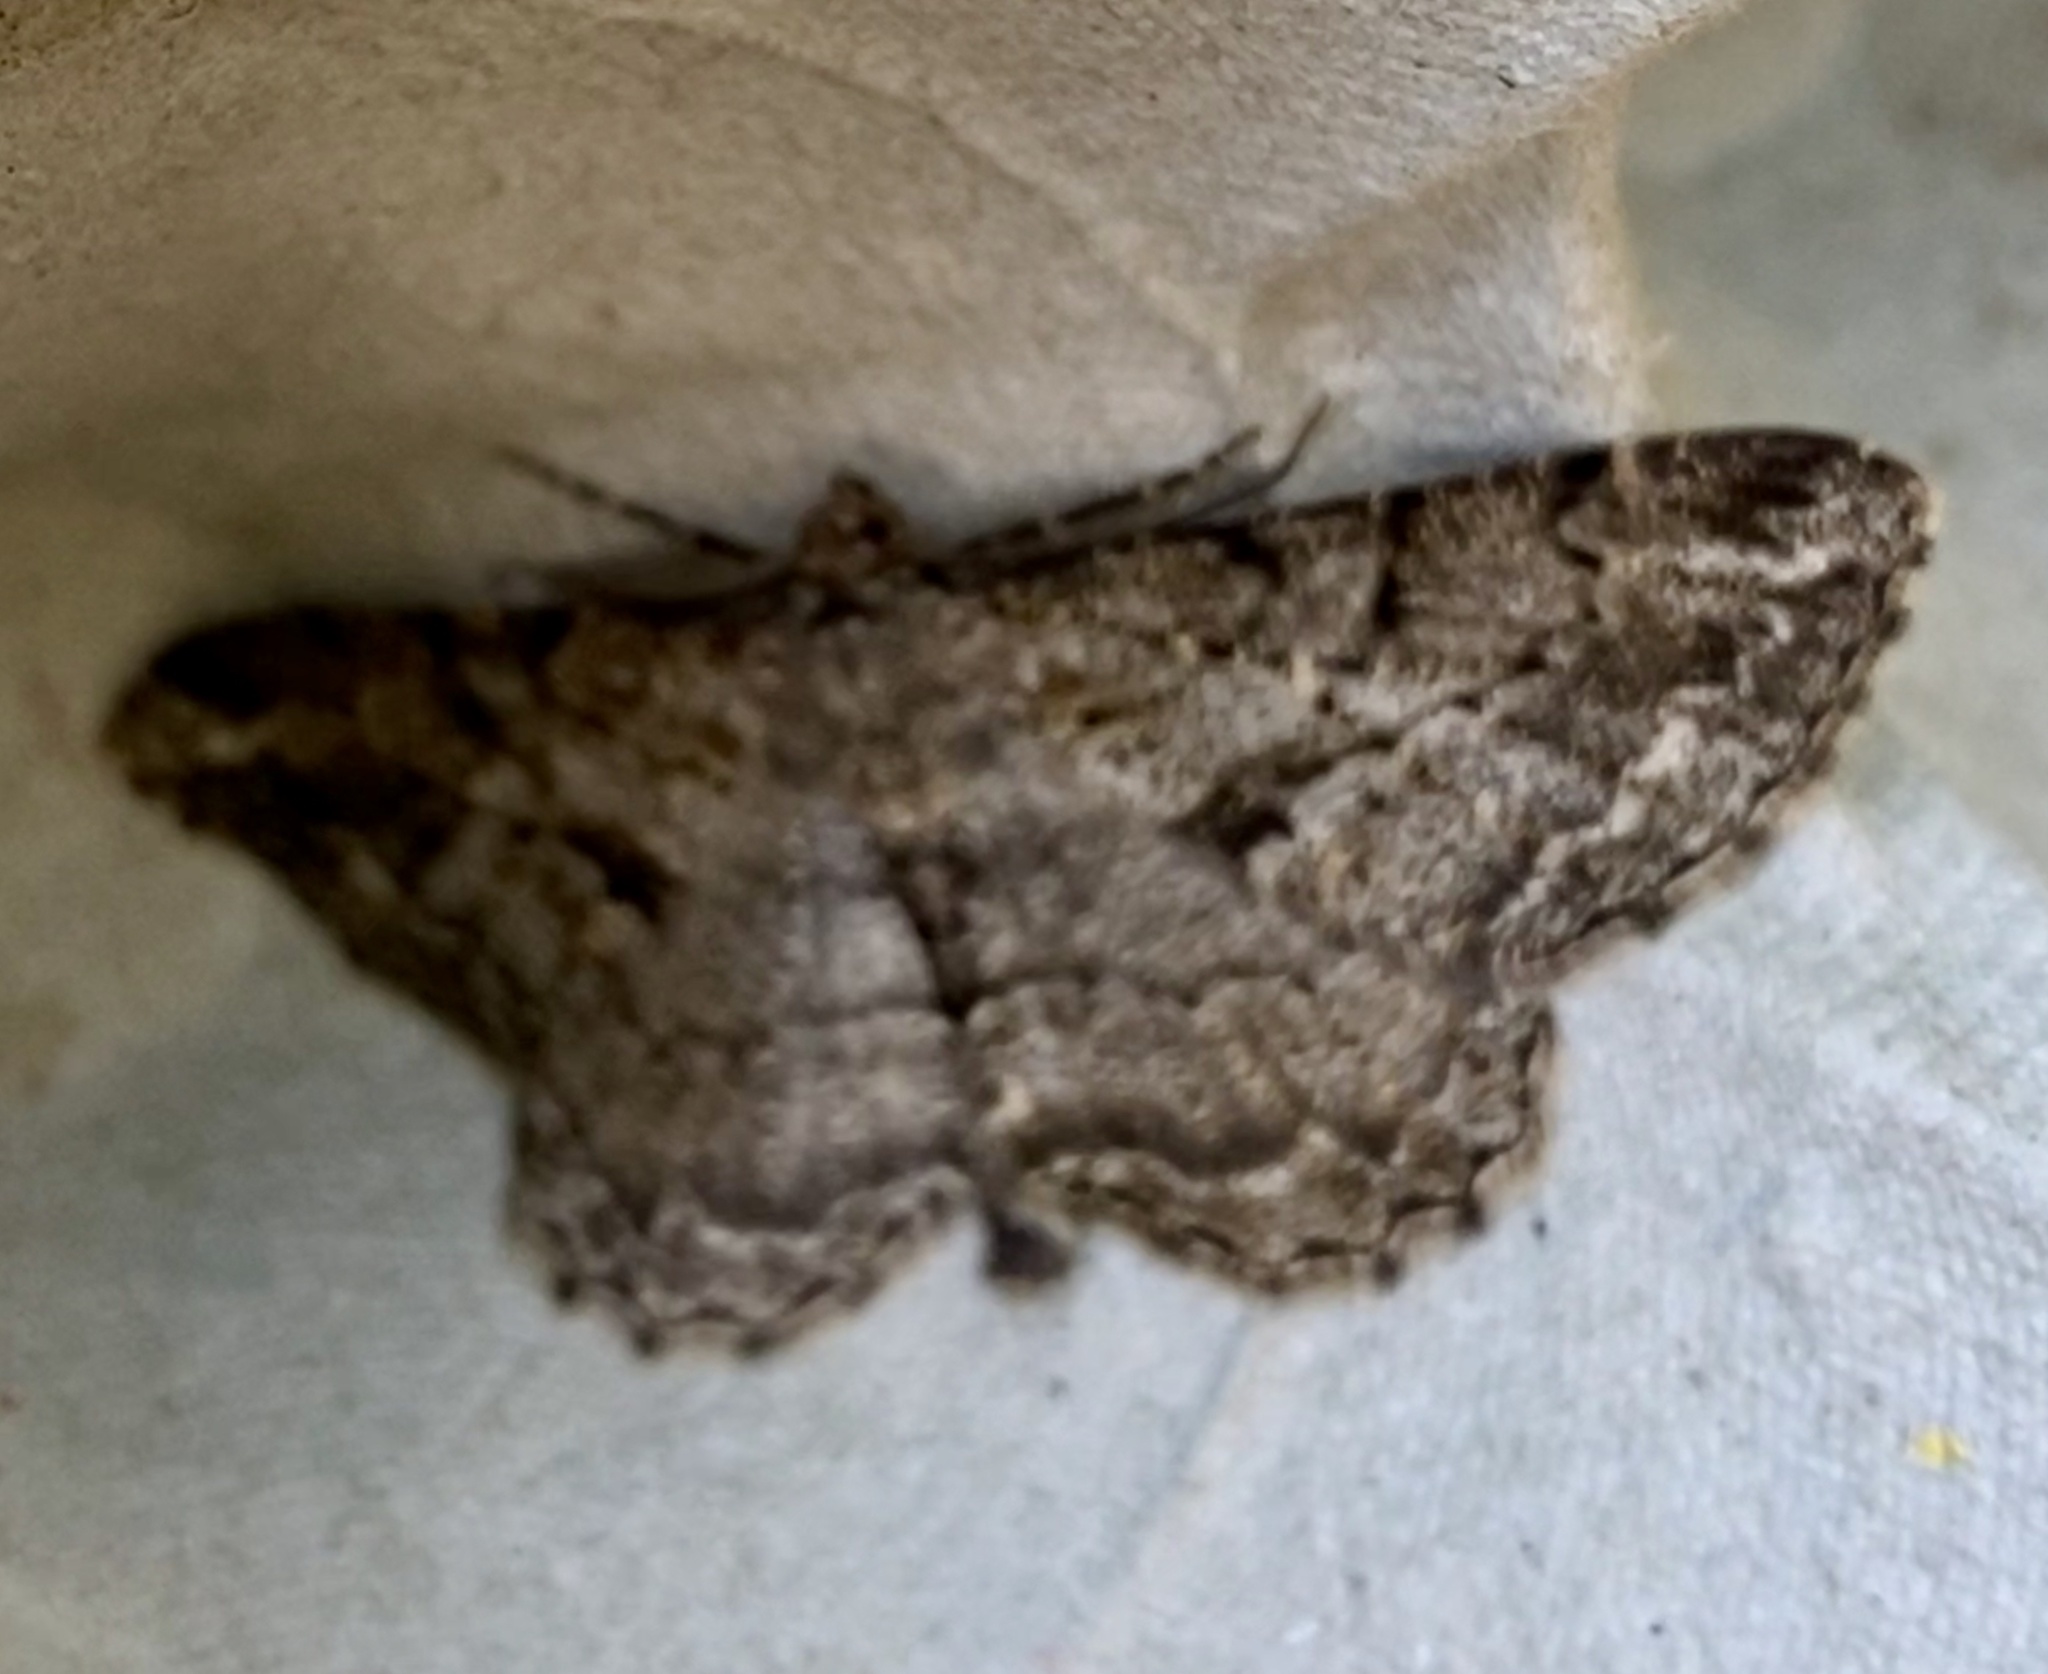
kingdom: Animalia
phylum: Arthropoda
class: Insecta
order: Lepidoptera
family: Geometridae
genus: Peribatodes
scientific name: Peribatodes rhomboidaria
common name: Willow beauty
